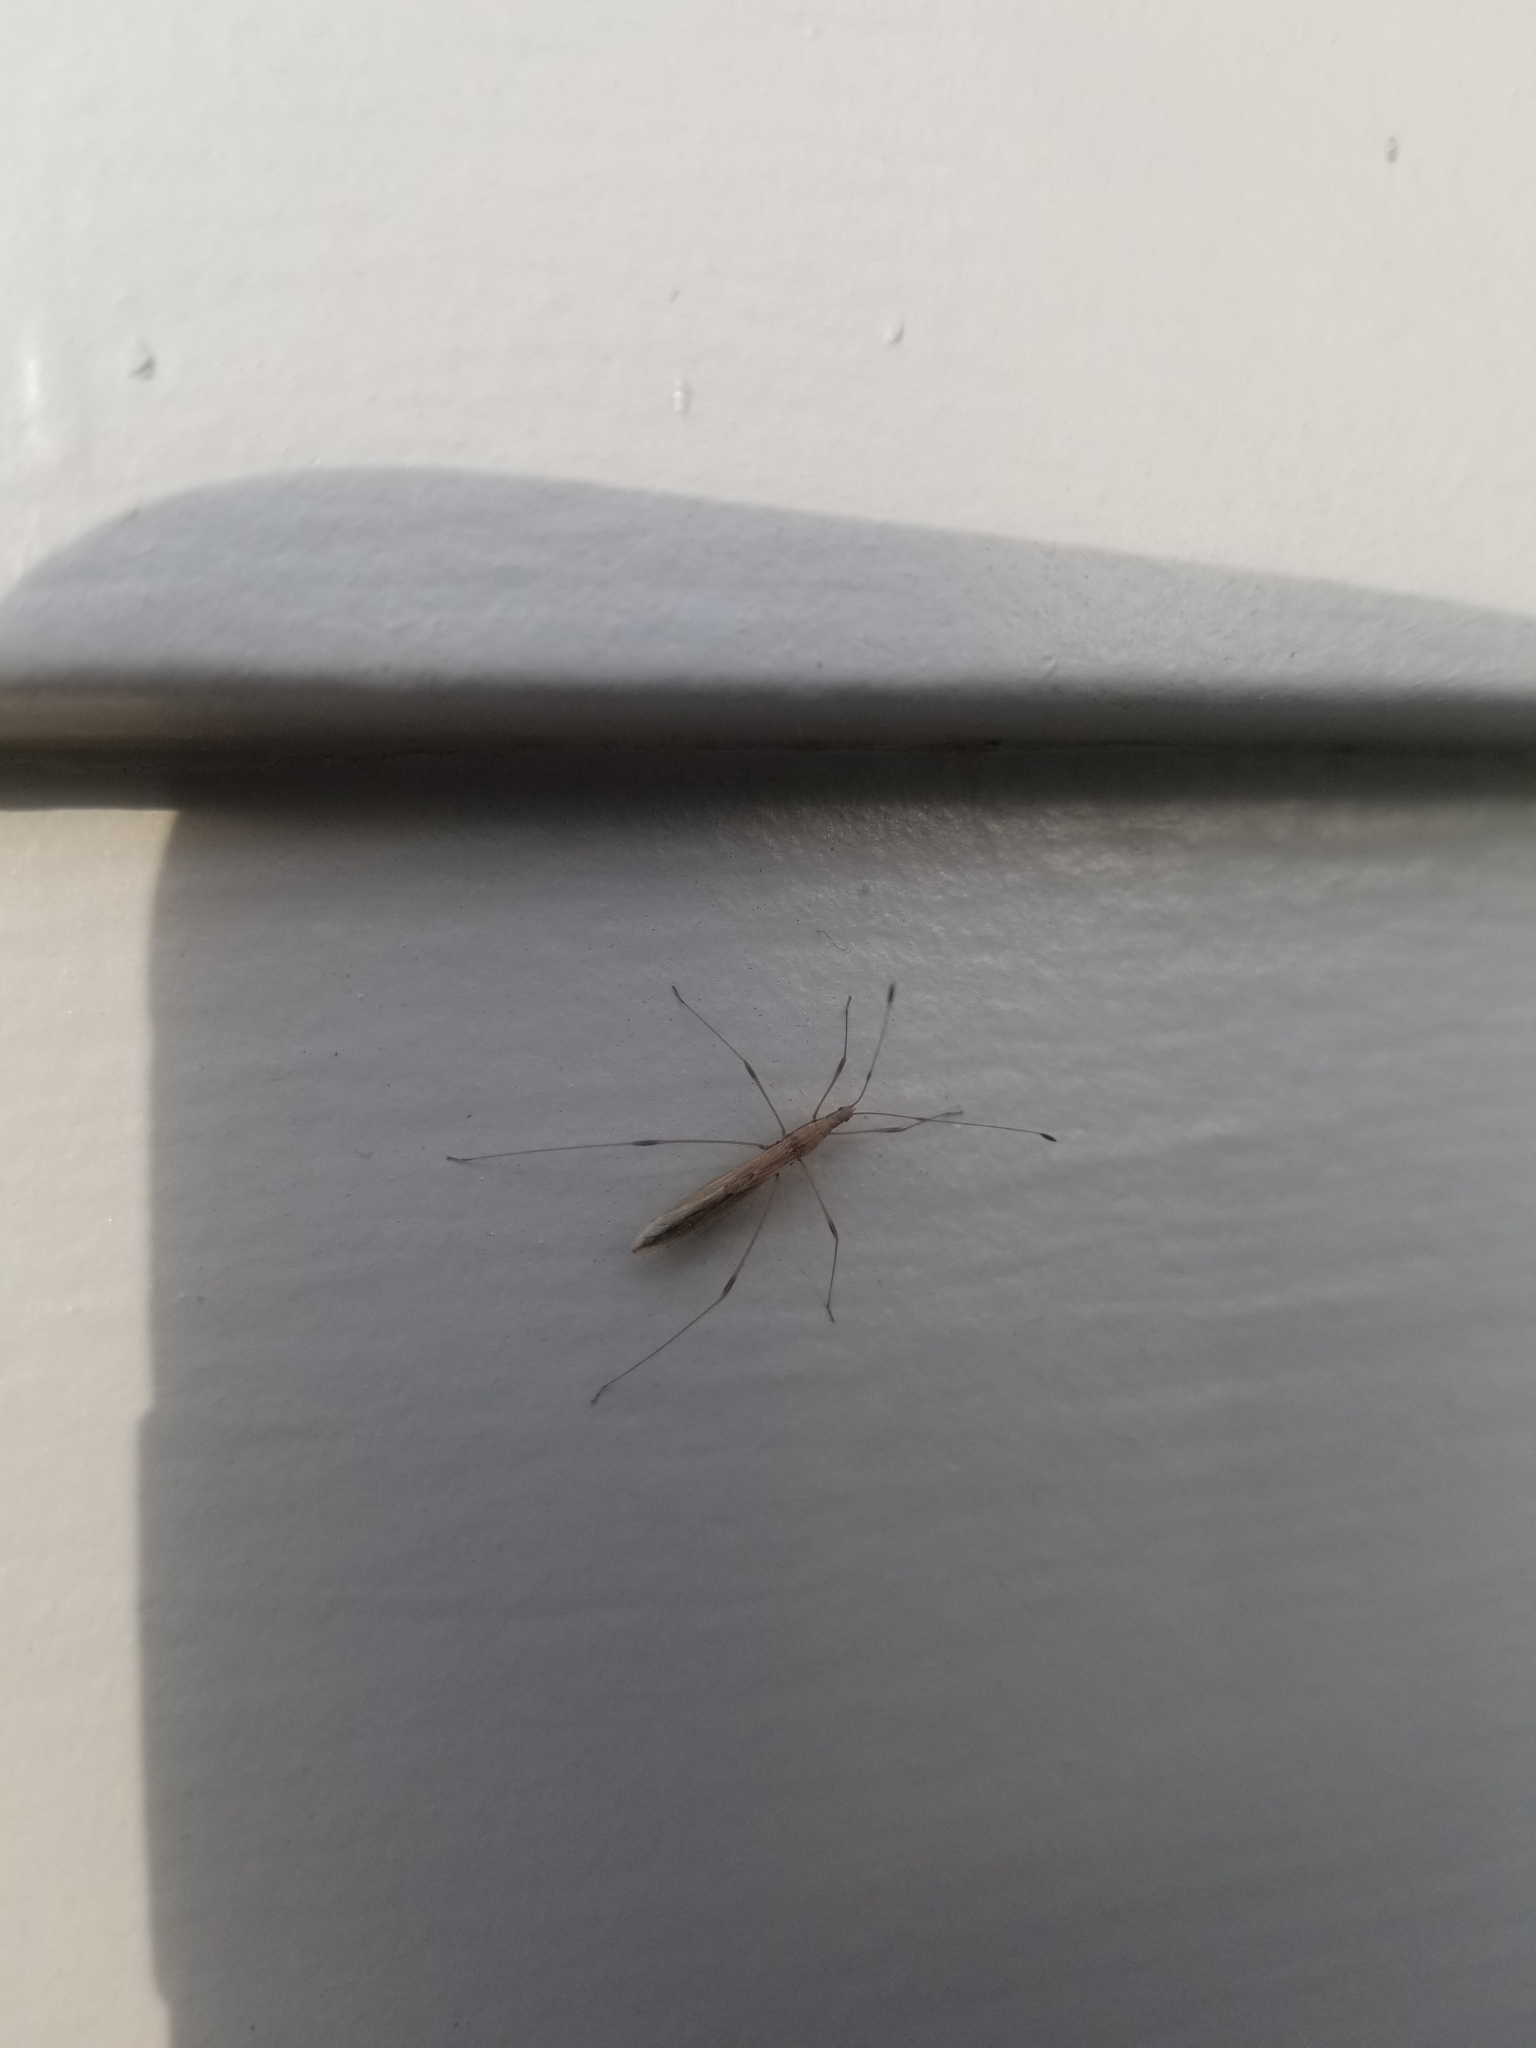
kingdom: Animalia
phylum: Arthropoda
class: Insecta
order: Hemiptera
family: Berytidae
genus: Neoneides
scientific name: Neoneides muticus
